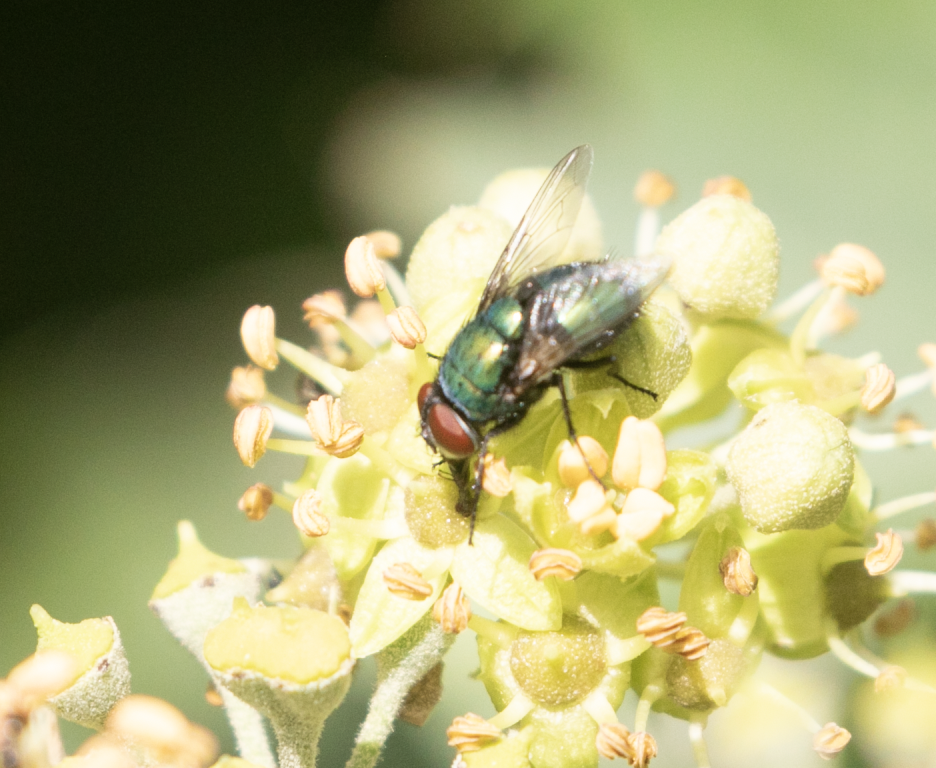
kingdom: Animalia
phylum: Arthropoda
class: Insecta
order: Diptera
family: Calliphoridae
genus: Lucilia
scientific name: Lucilia sericata
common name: Blow fly
